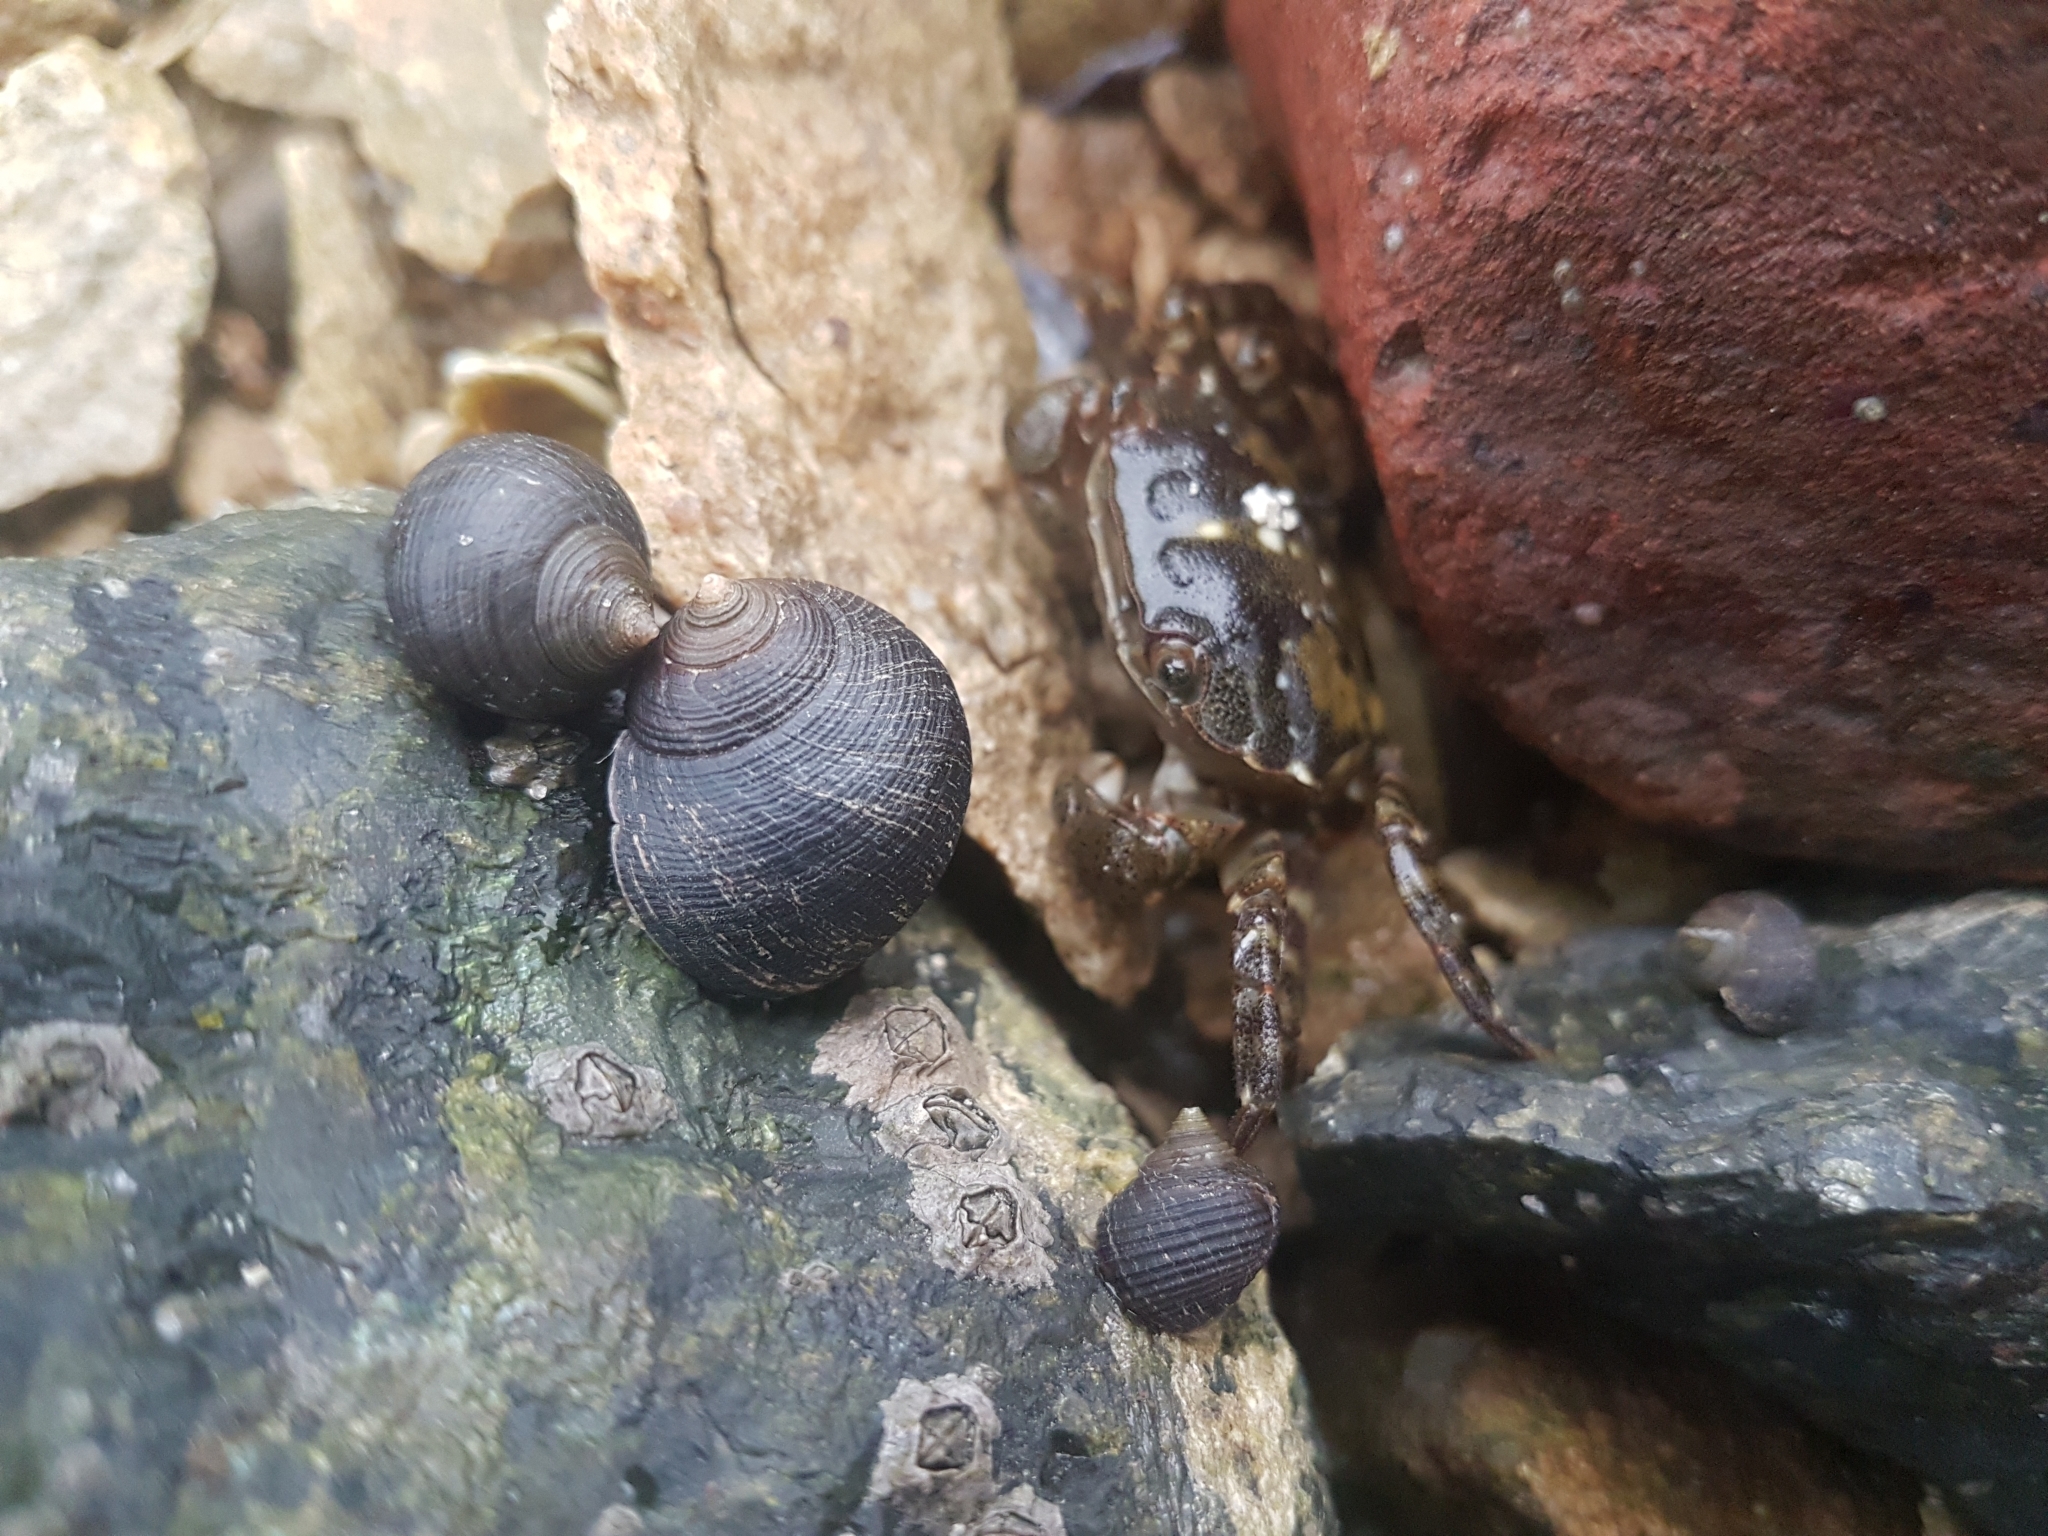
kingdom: Animalia
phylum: Mollusca
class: Gastropoda
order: Littorinimorpha
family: Littorinidae
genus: Littorina
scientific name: Littorina littorea
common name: Common periwinkle
